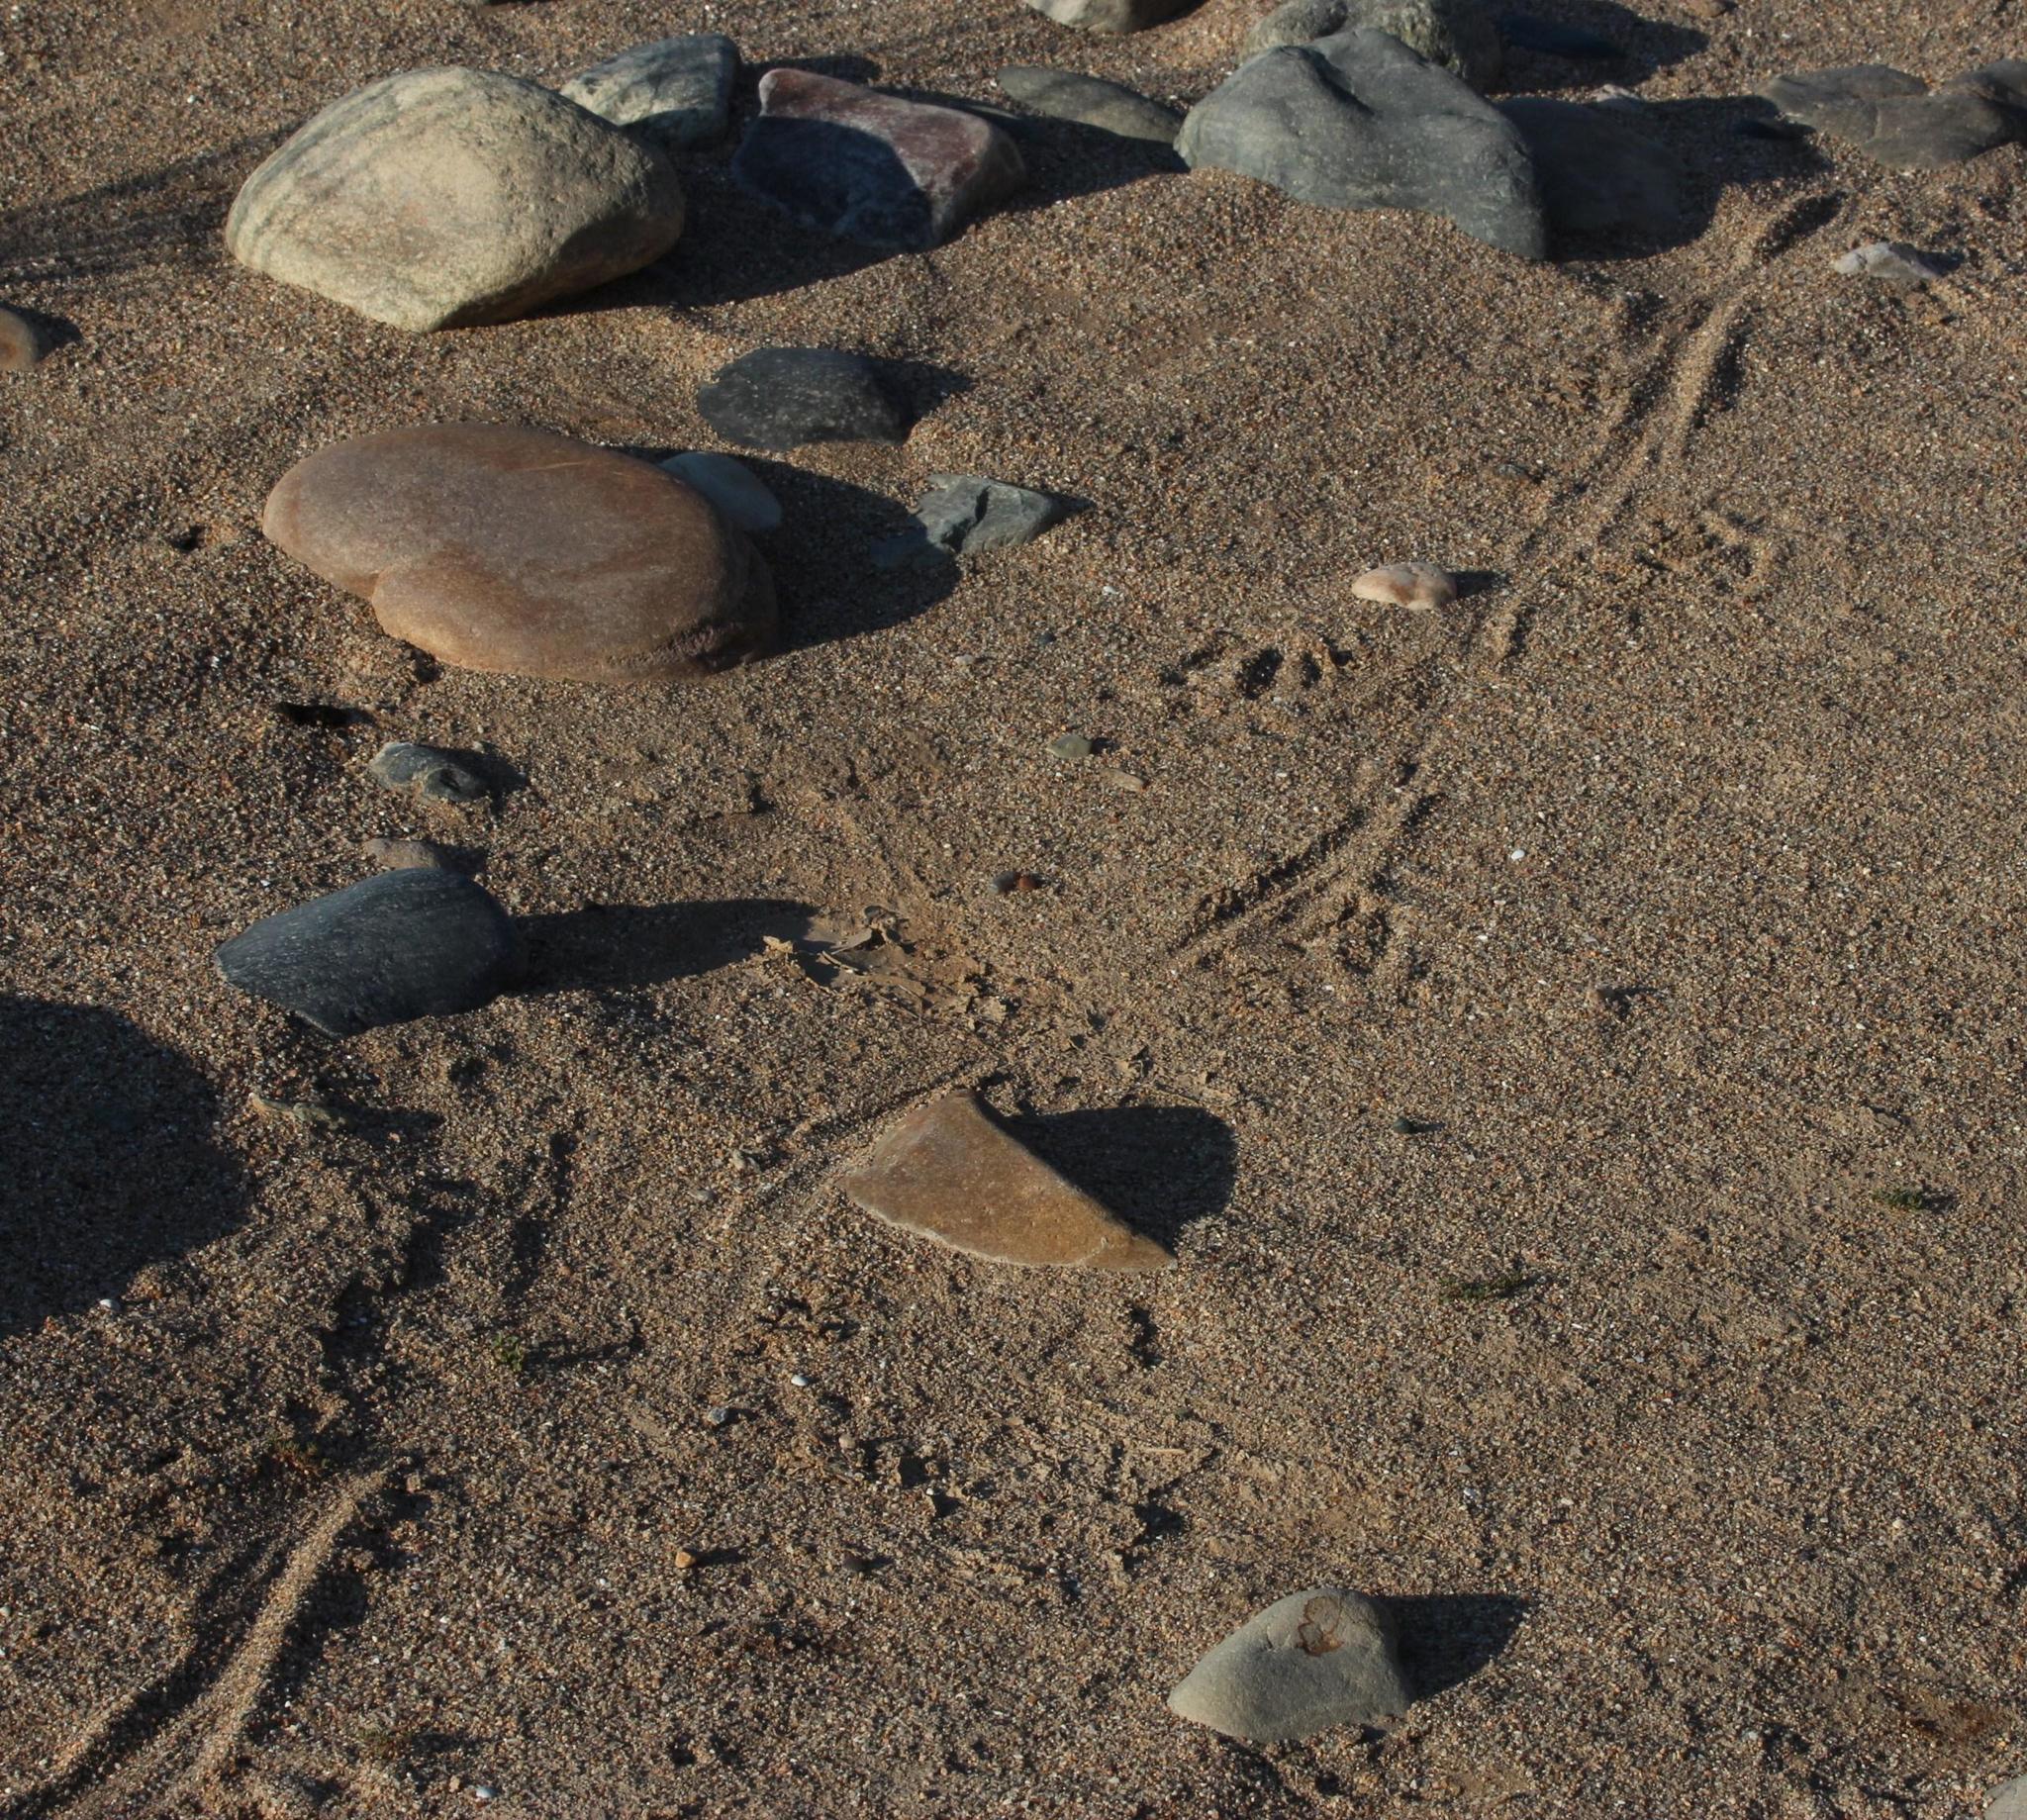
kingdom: Animalia
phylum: Chordata
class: Squamata
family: Varanidae
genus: Varanus
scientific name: Varanus niloticus
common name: Nile monitor
